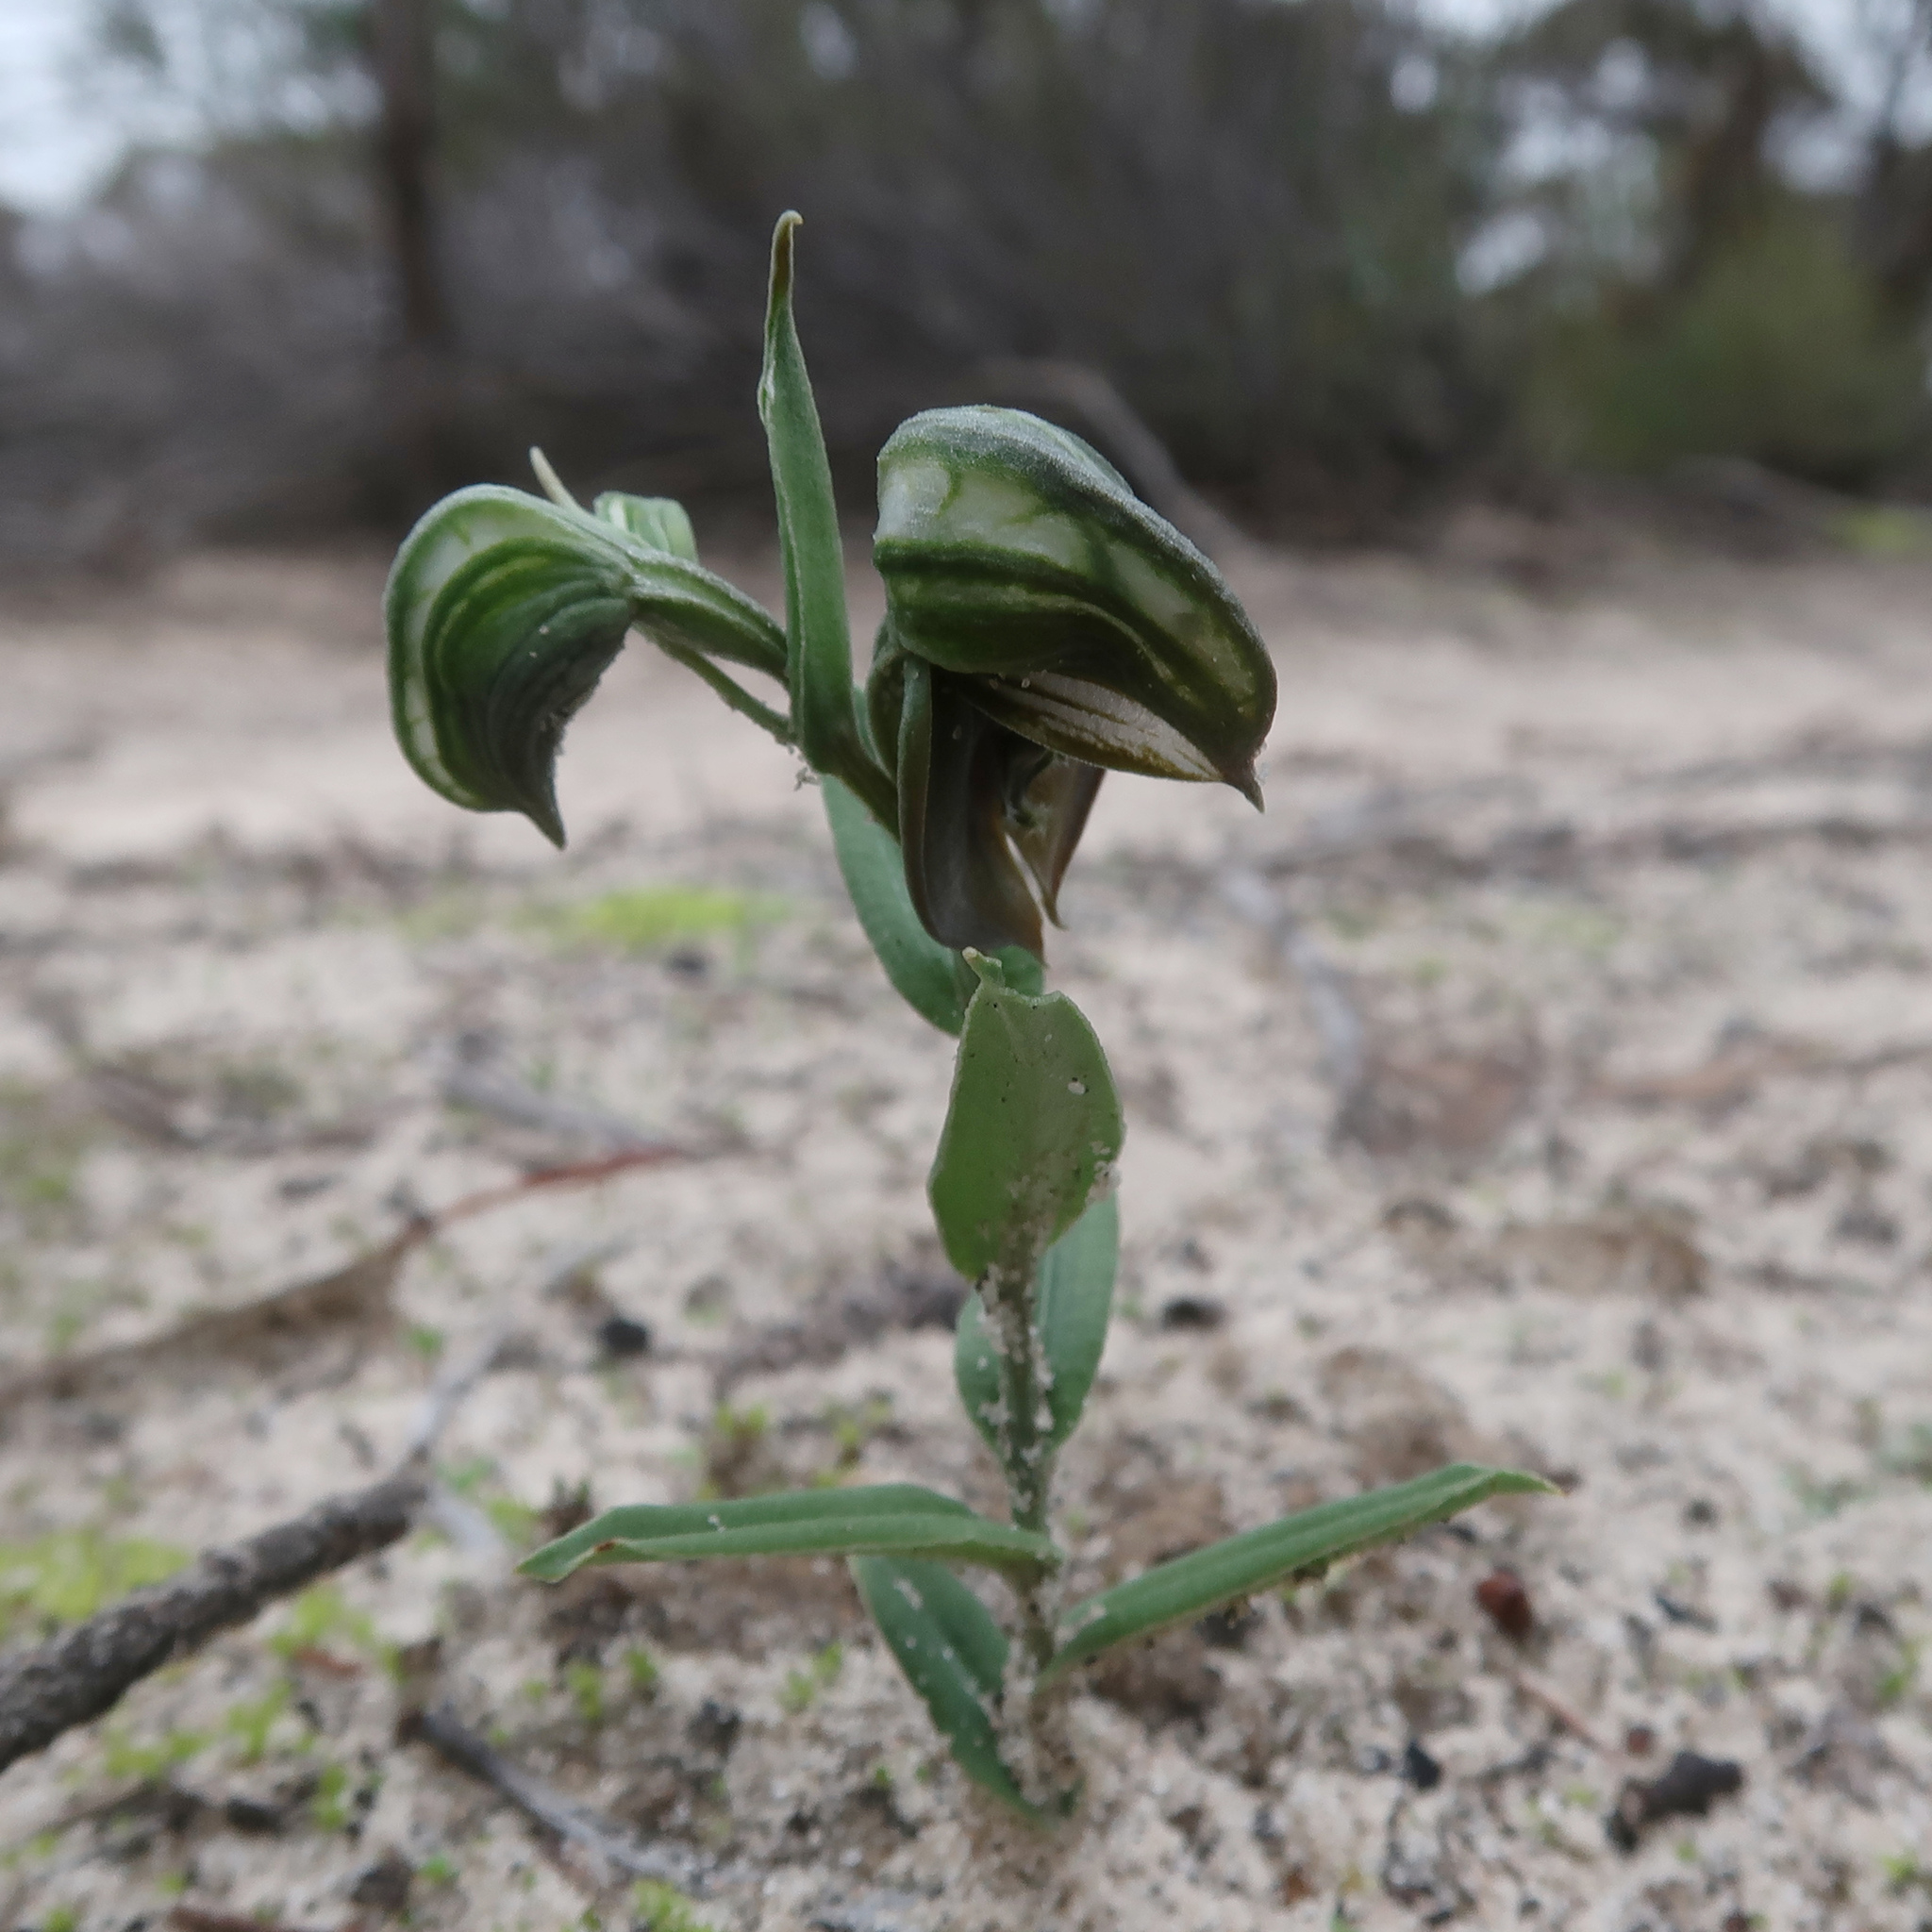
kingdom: Plantae
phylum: Tracheophyta
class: Liliopsida
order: Asparagales
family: Orchidaceae
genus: Pterostylis
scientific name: Pterostylis sanguinea
